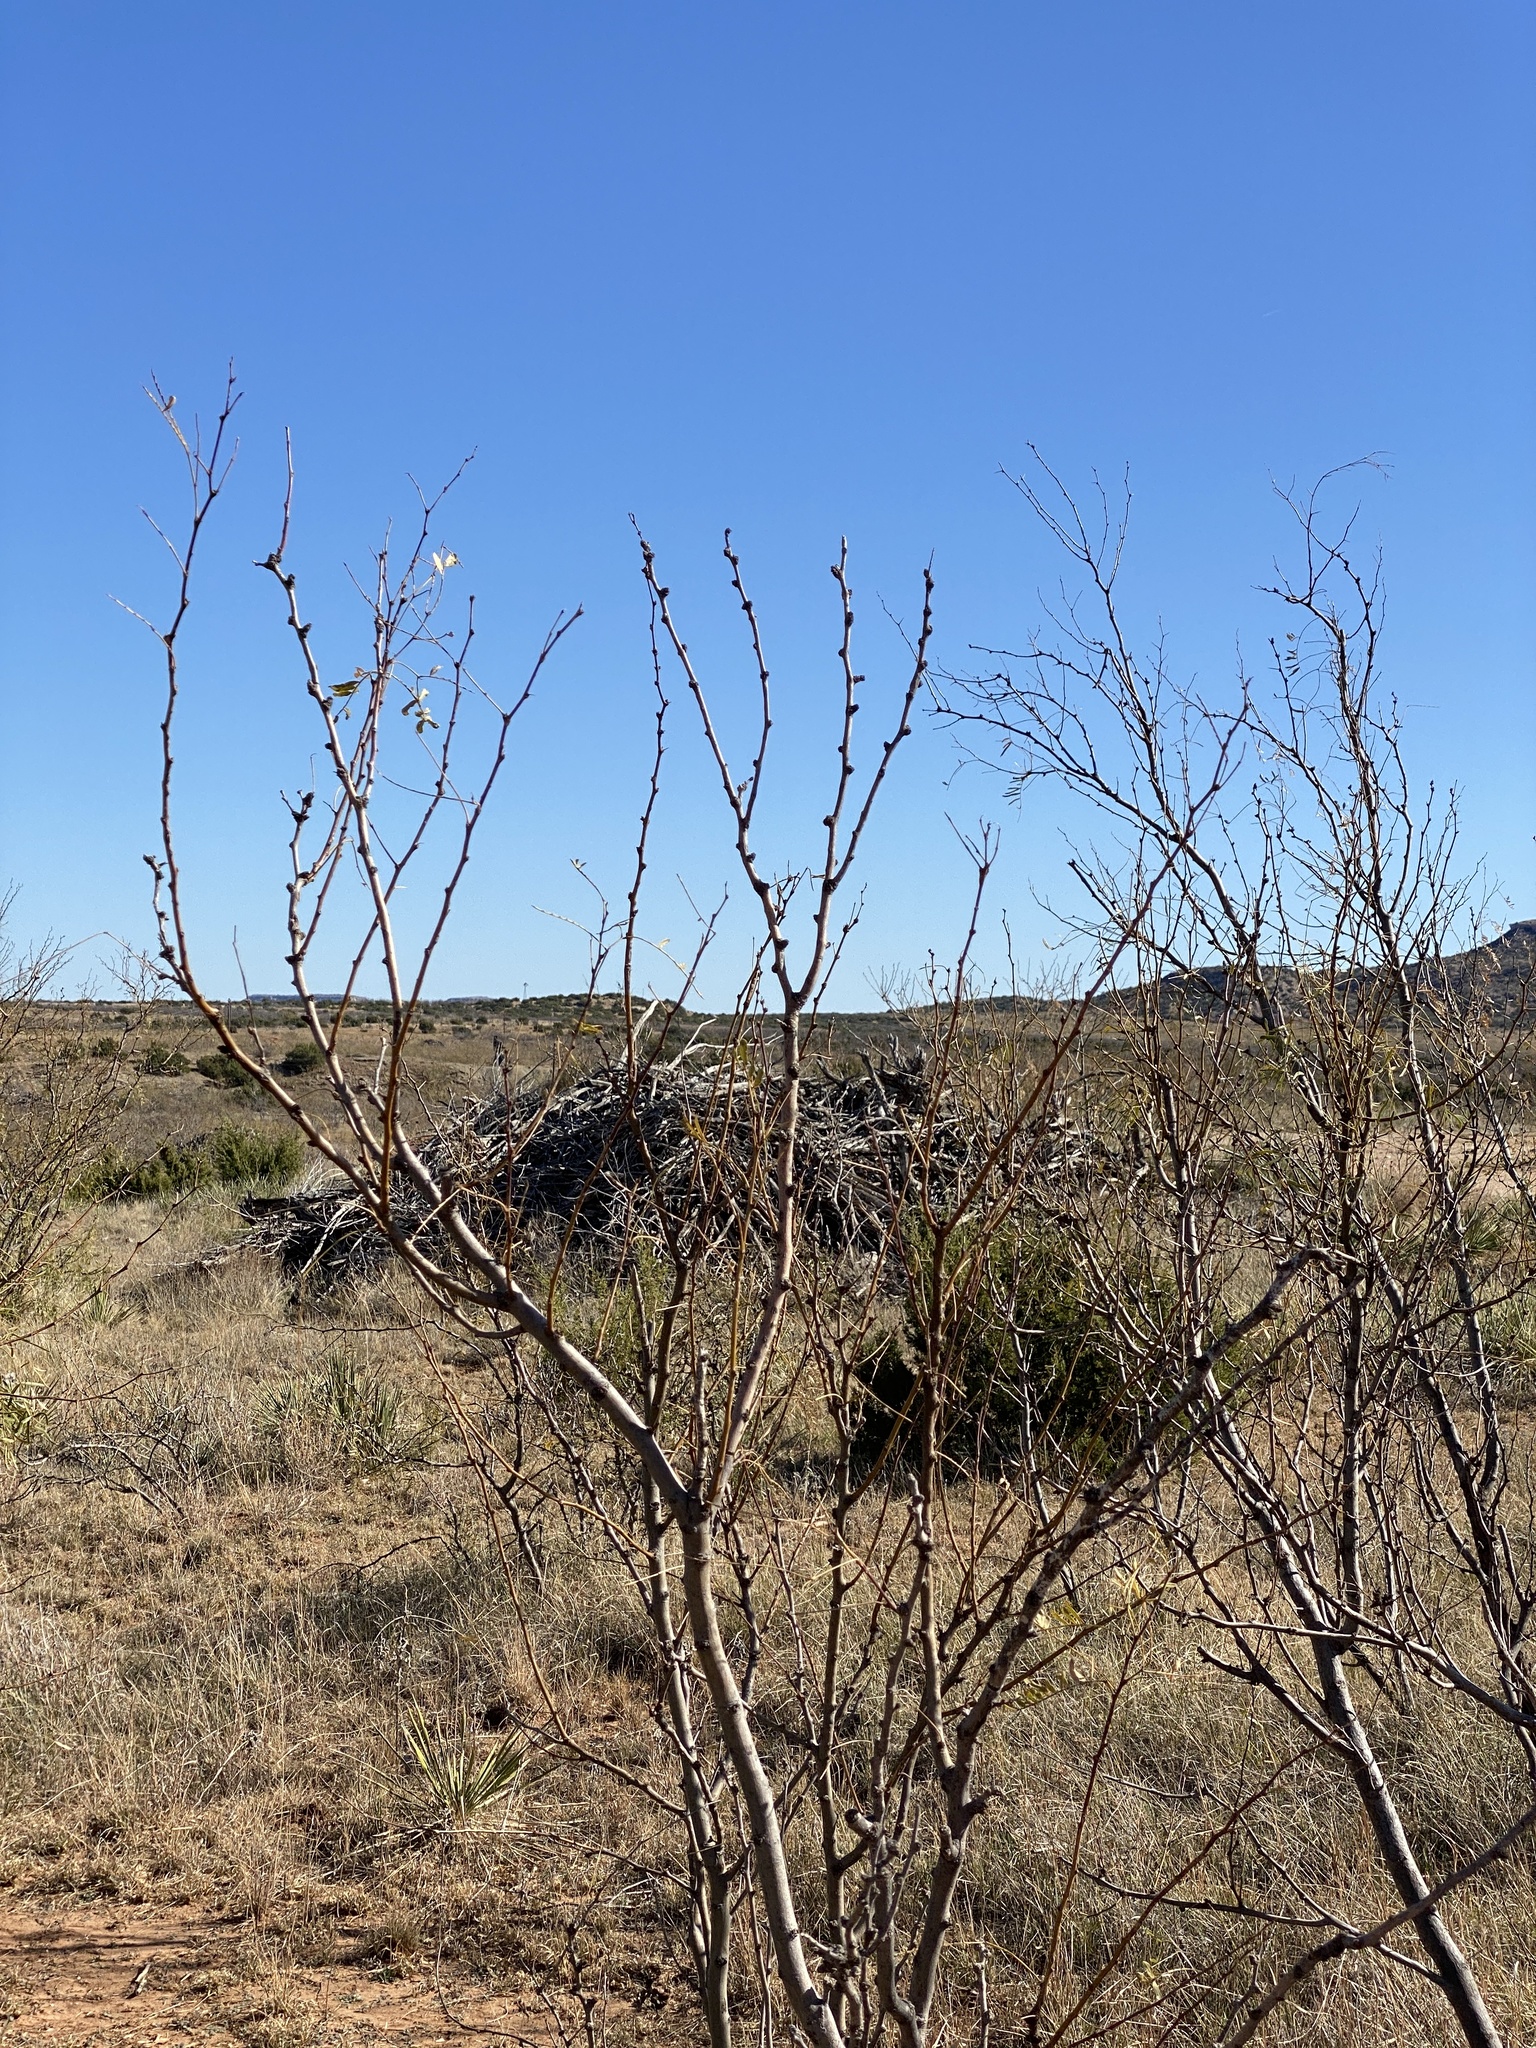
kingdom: Plantae
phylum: Tracheophyta
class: Magnoliopsida
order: Fabales
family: Fabaceae
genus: Prosopis
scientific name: Prosopis glandulosa
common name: Honey mesquite
